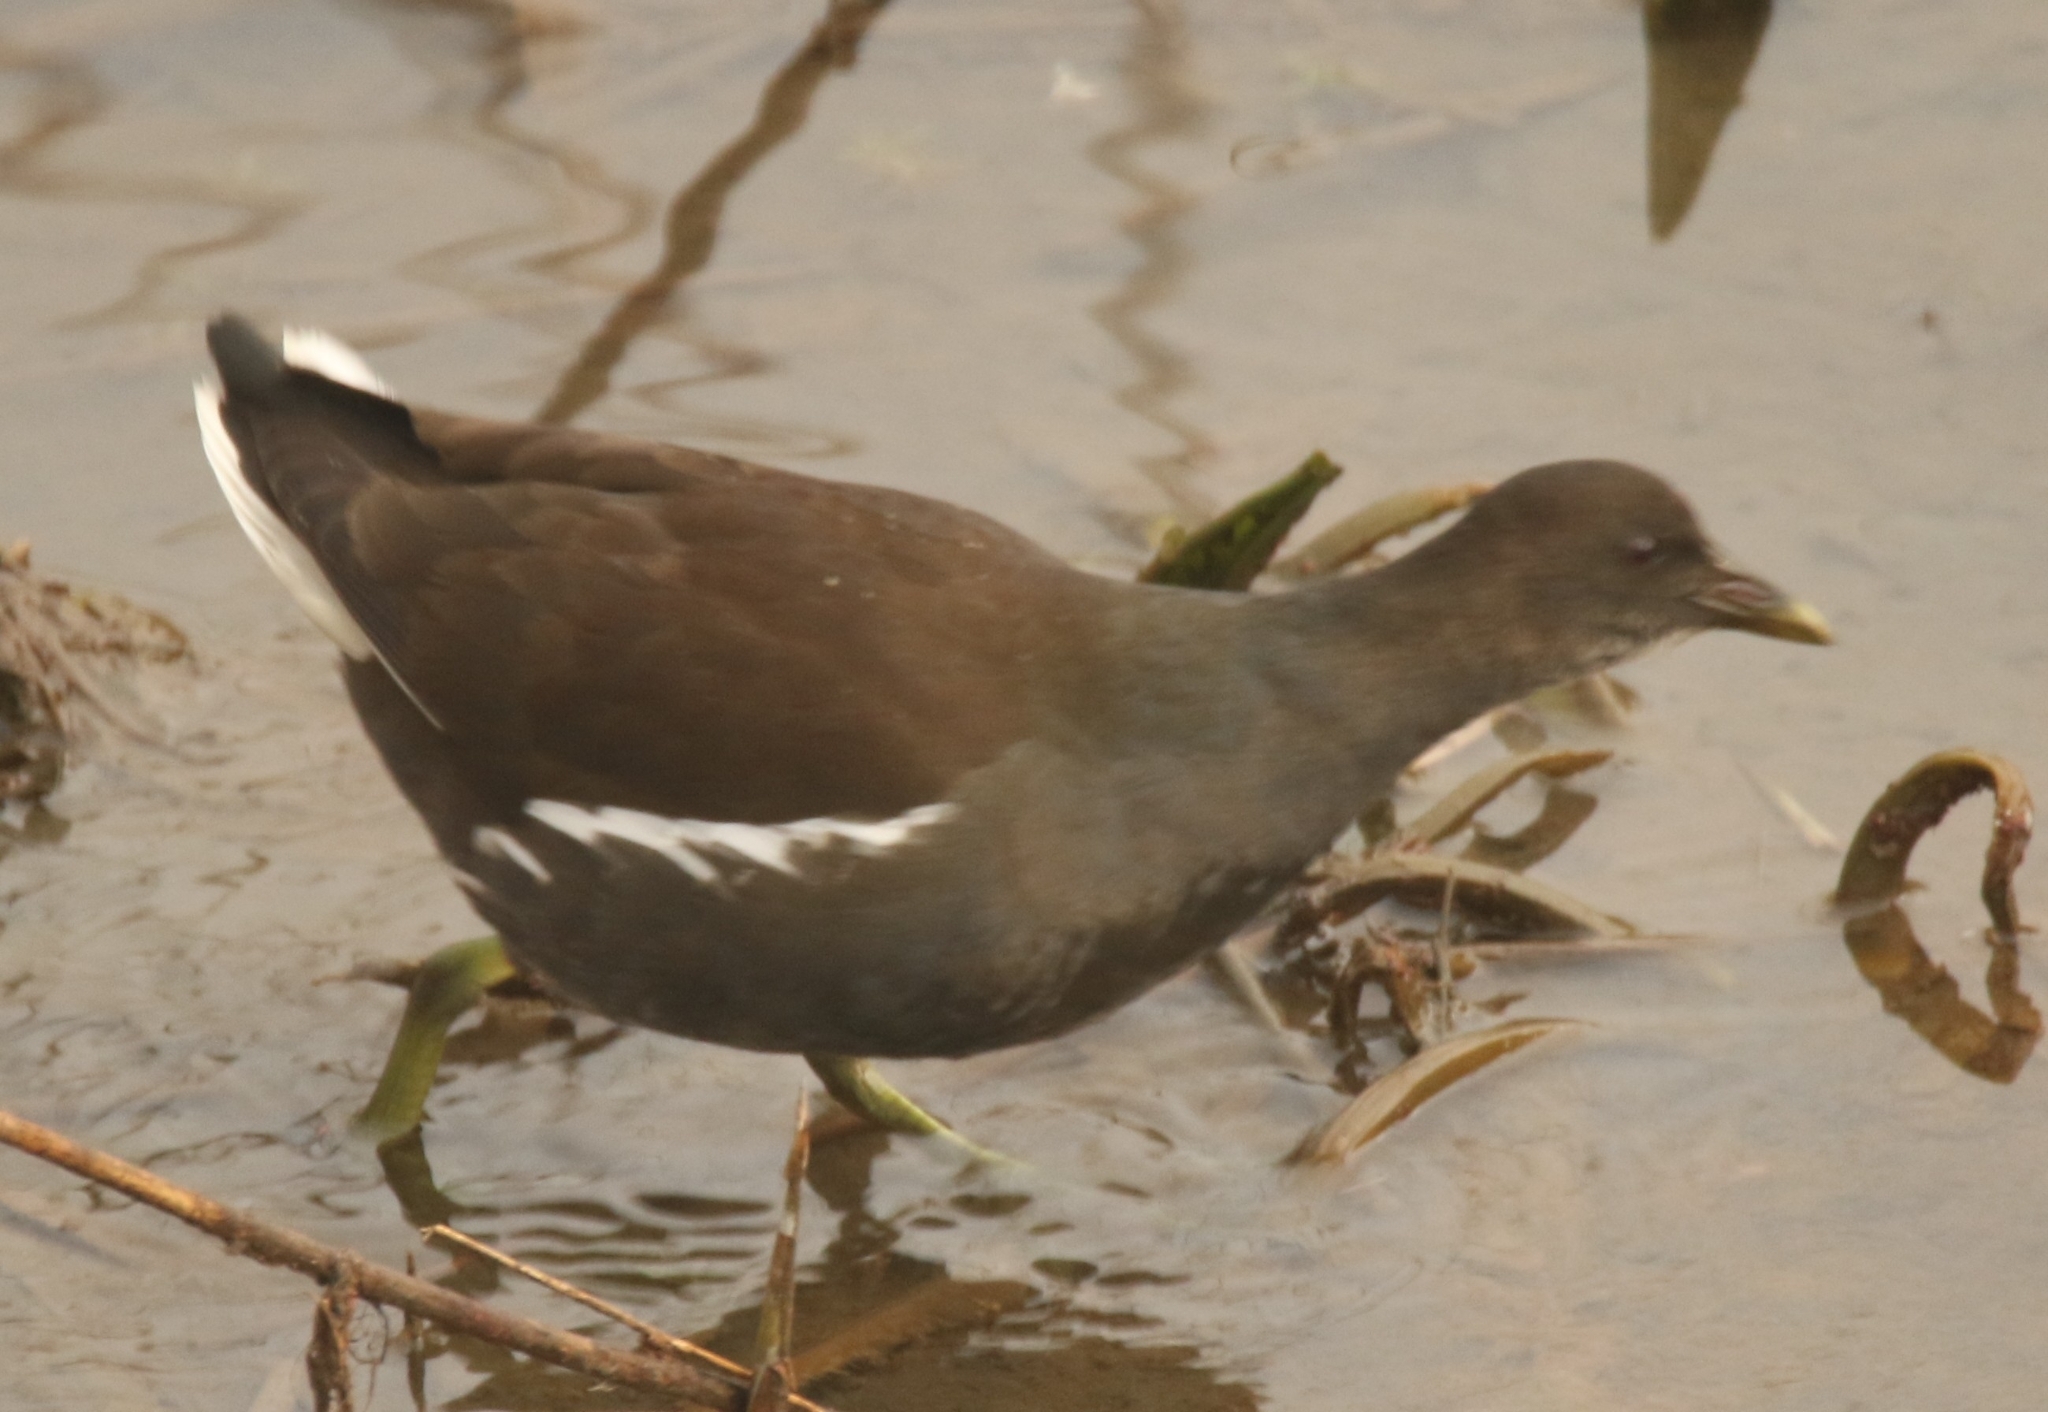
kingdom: Animalia
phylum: Chordata
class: Aves
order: Gruiformes
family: Rallidae
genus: Gallinula
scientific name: Gallinula chloropus
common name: Common moorhen
